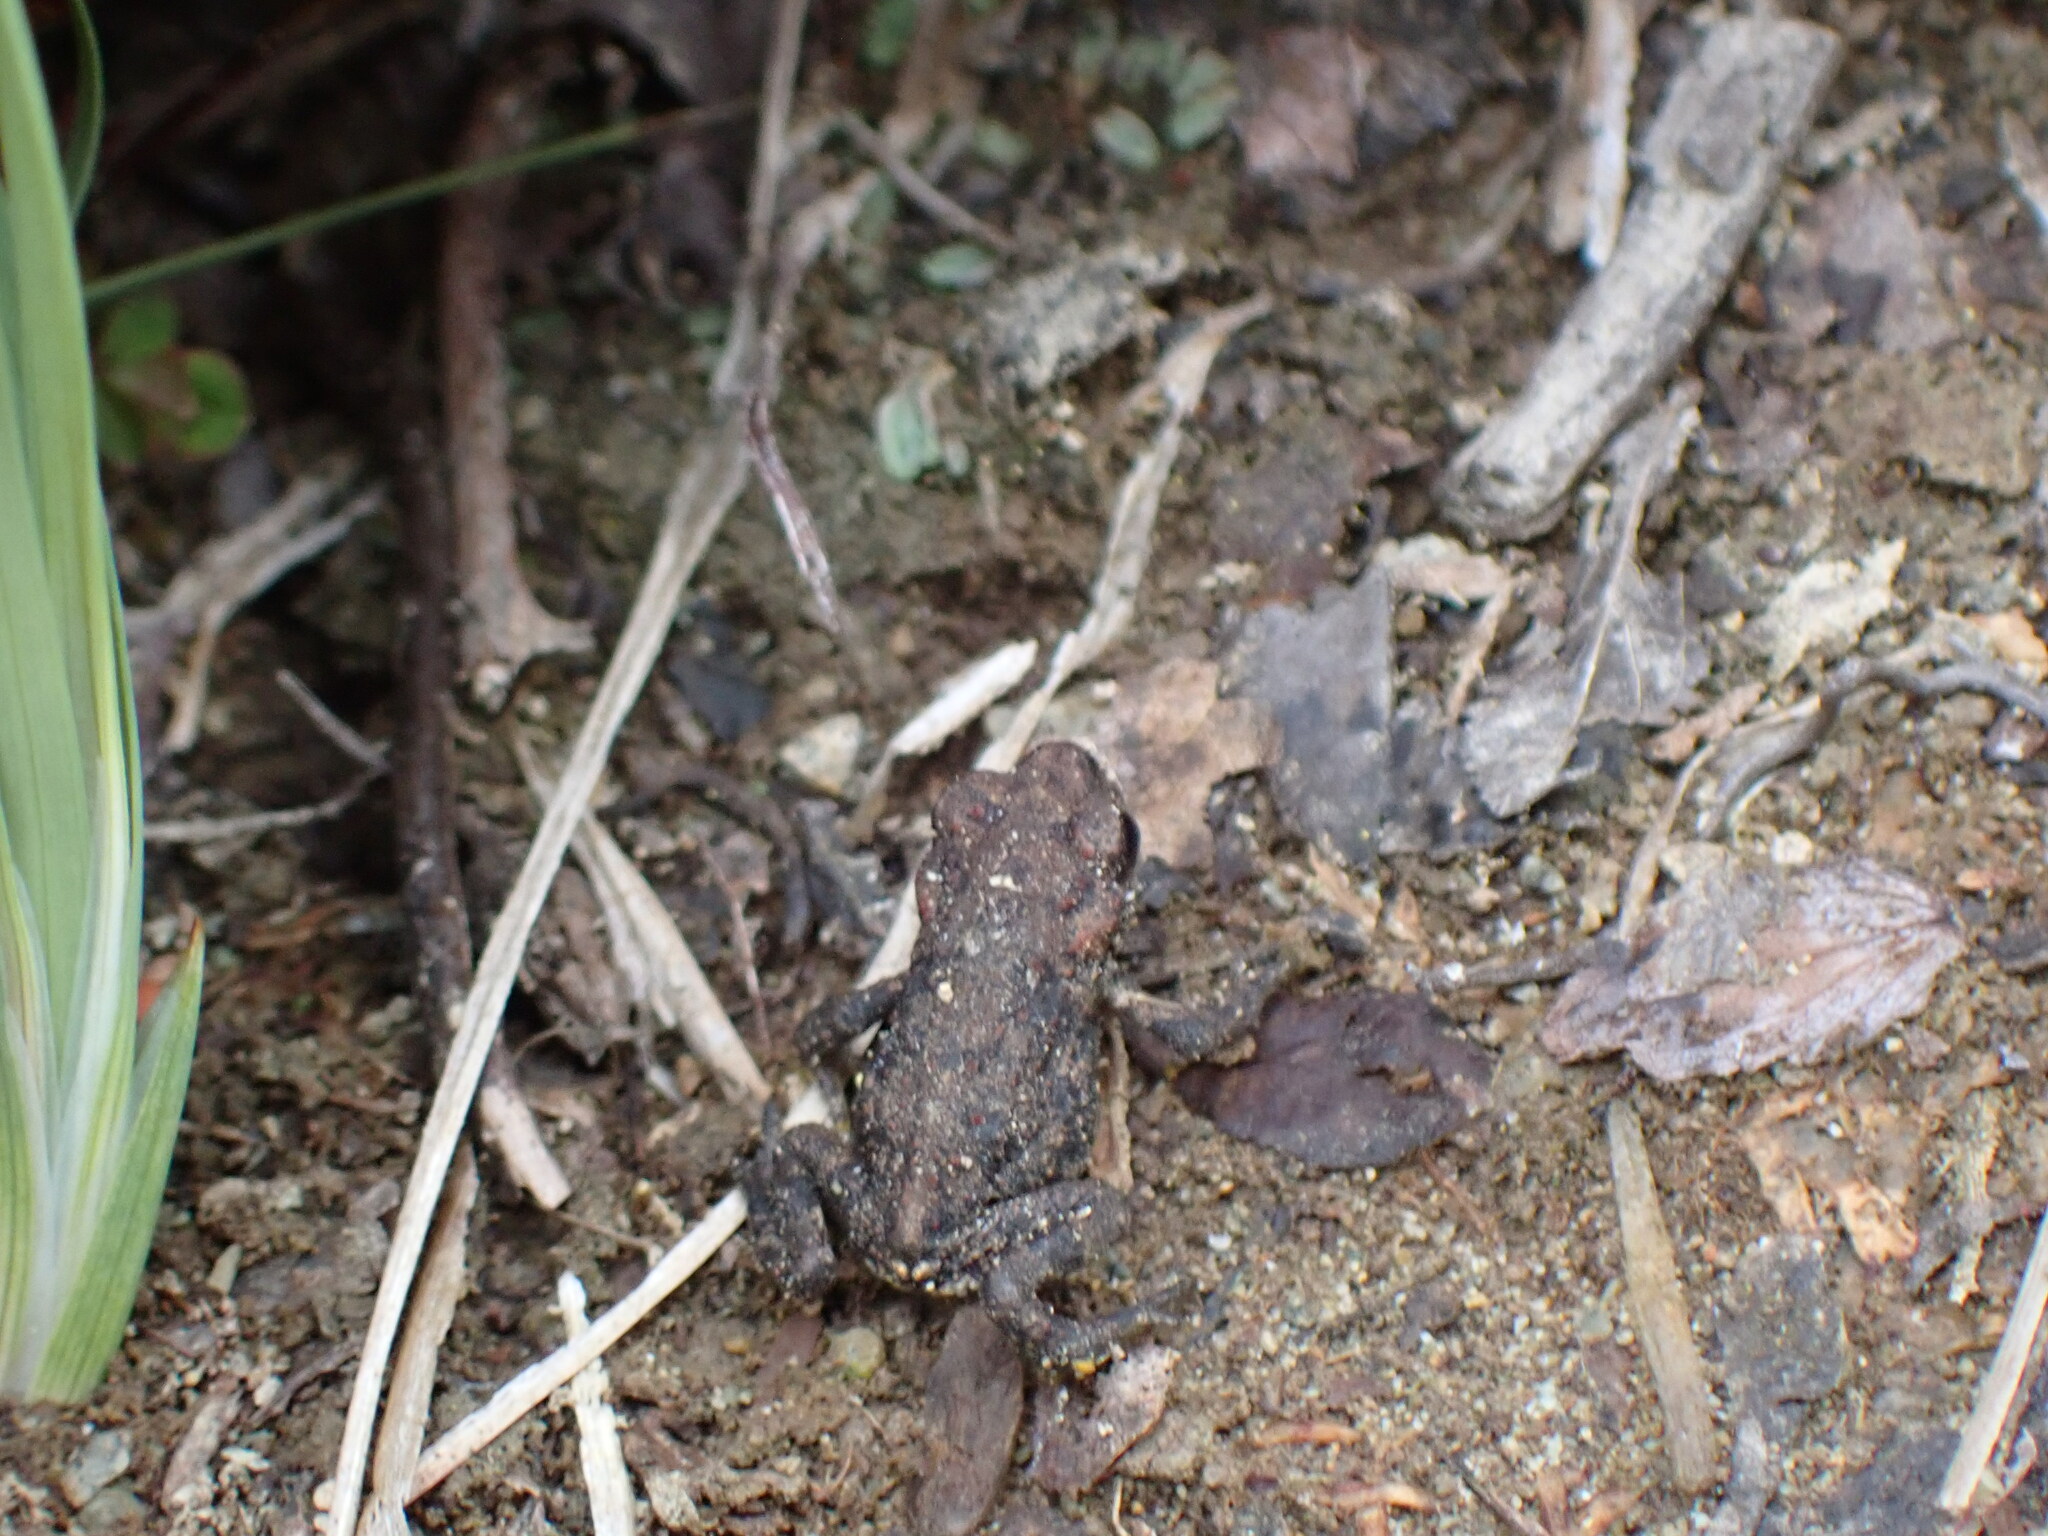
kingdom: Animalia
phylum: Chordata
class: Amphibia
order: Anura
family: Bufonidae
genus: Anaxyrus
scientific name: Anaxyrus boreas
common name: Western toad
